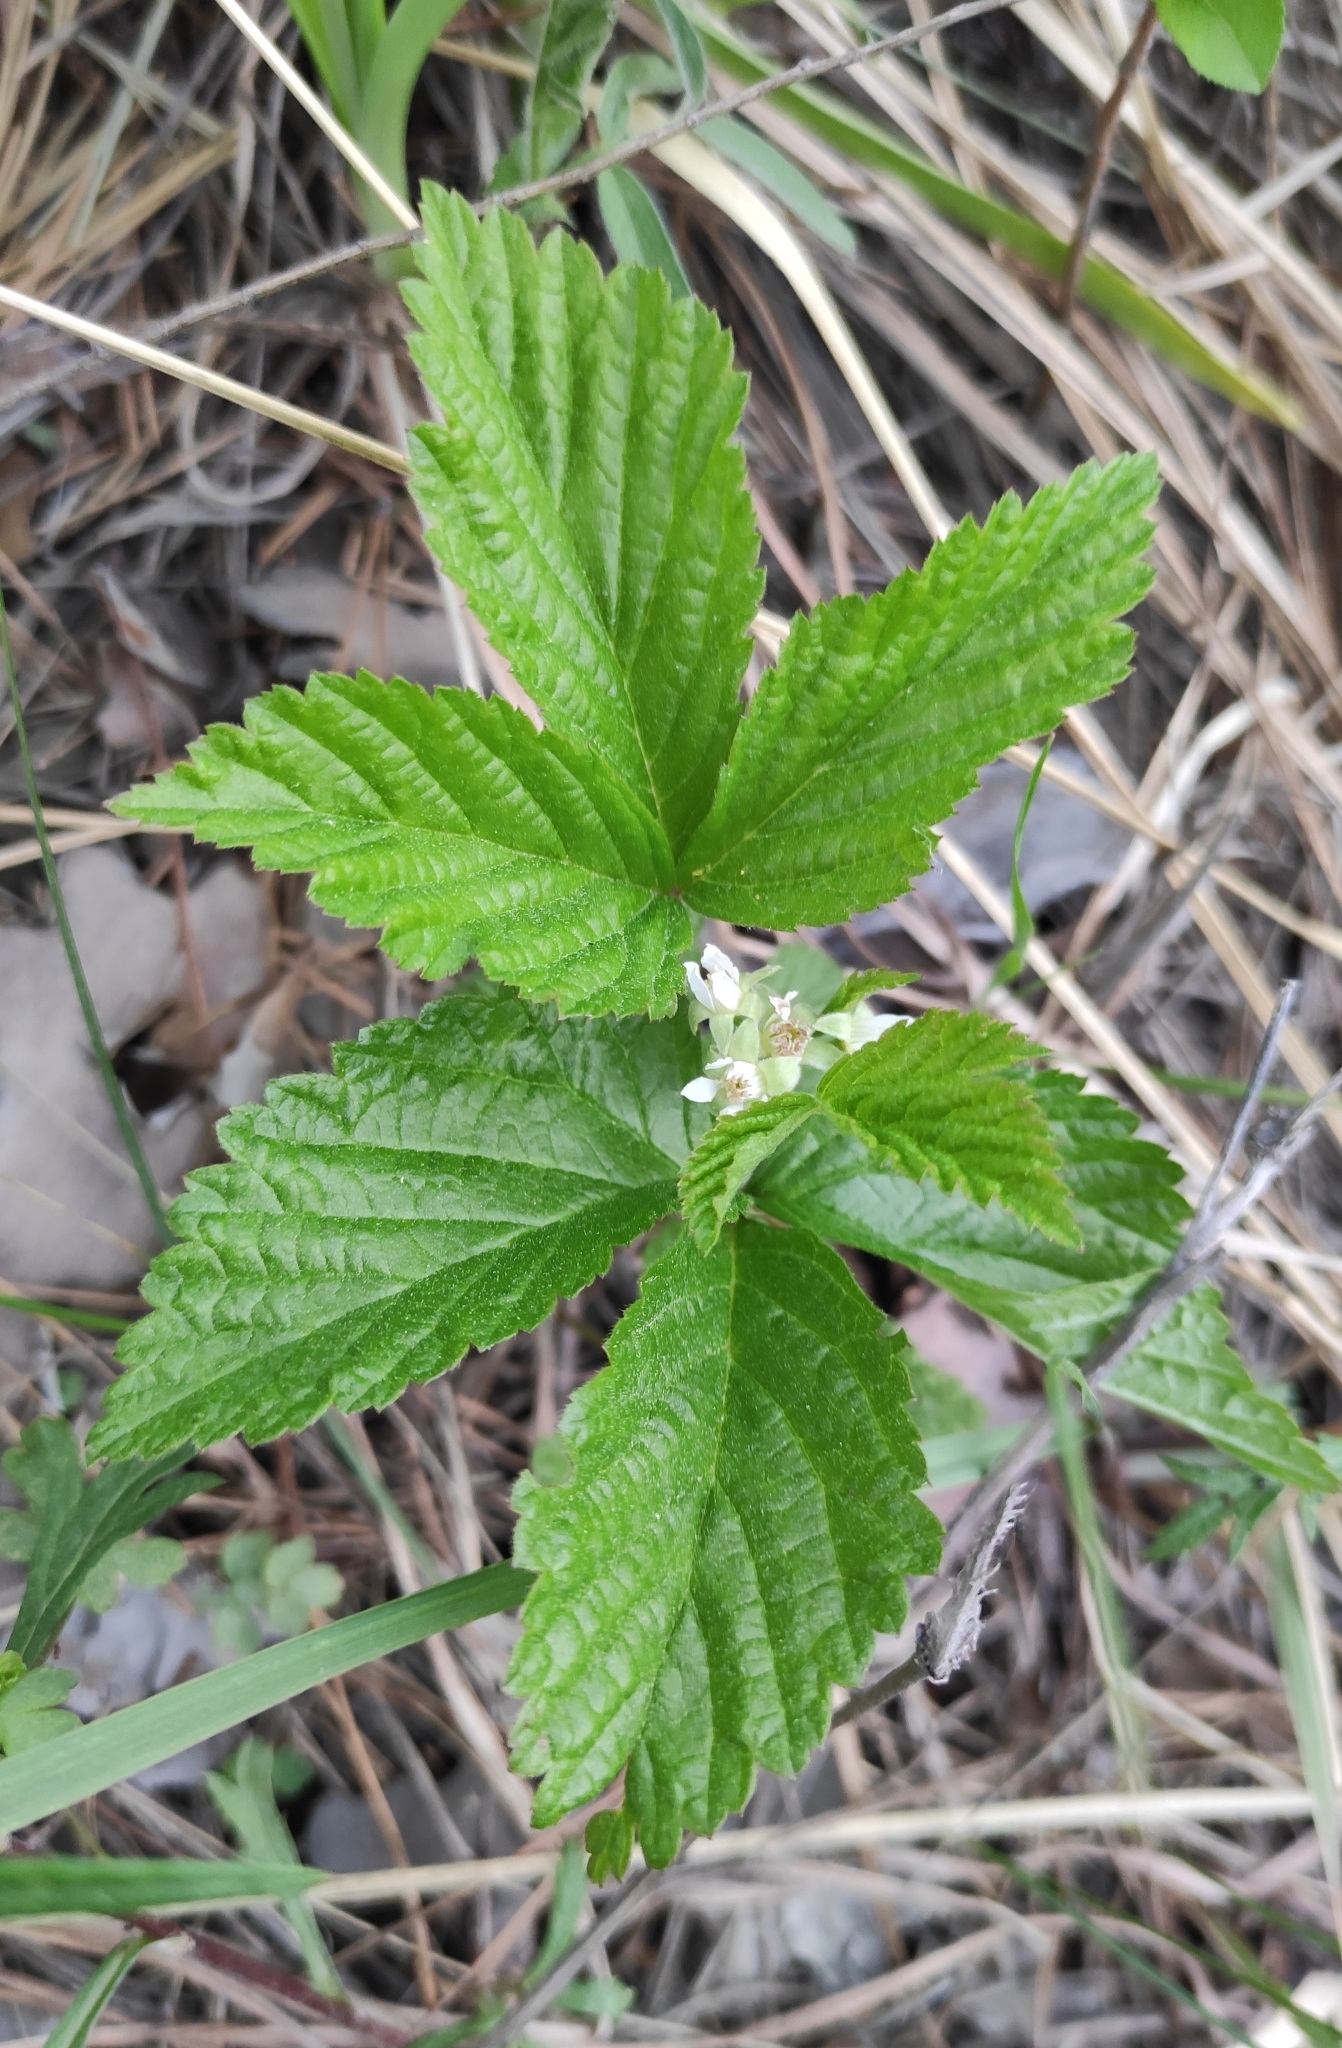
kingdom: Plantae
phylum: Tracheophyta
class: Magnoliopsida
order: Rosales
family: Rosaceae
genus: Rubus
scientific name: Rubus saxatilis
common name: Stone bramble
